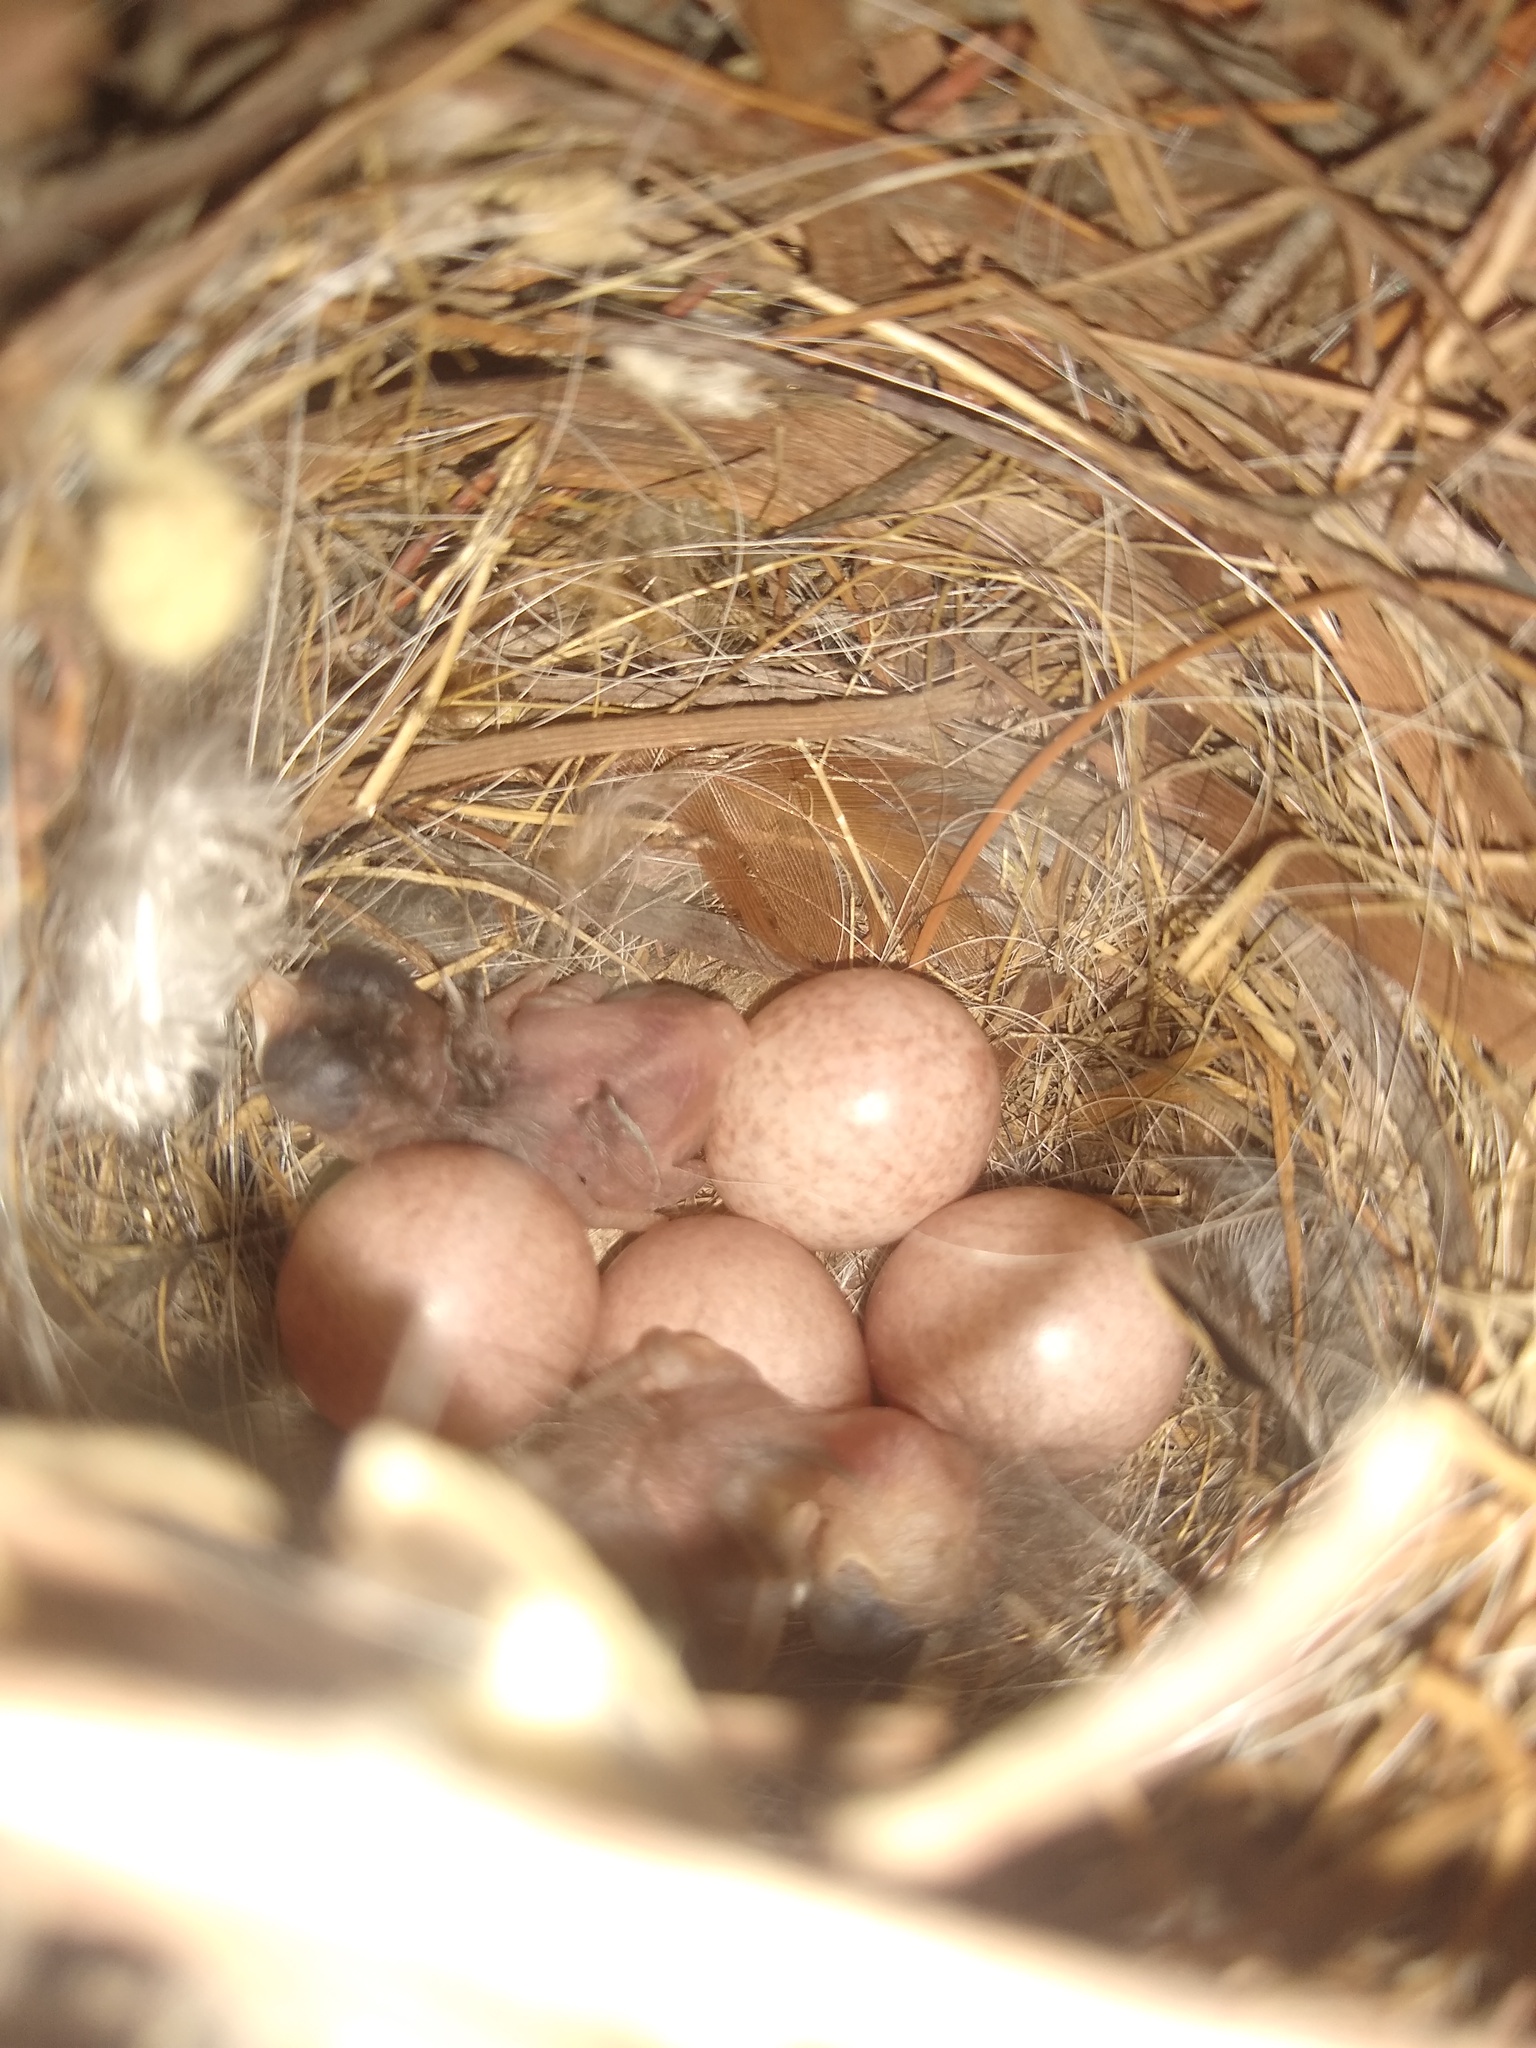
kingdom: Animalia
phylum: Chordata
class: Aves
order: Passeriformes
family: Troglodytidae
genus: Troglodytes
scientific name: Troglodytes aedon
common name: House wren
